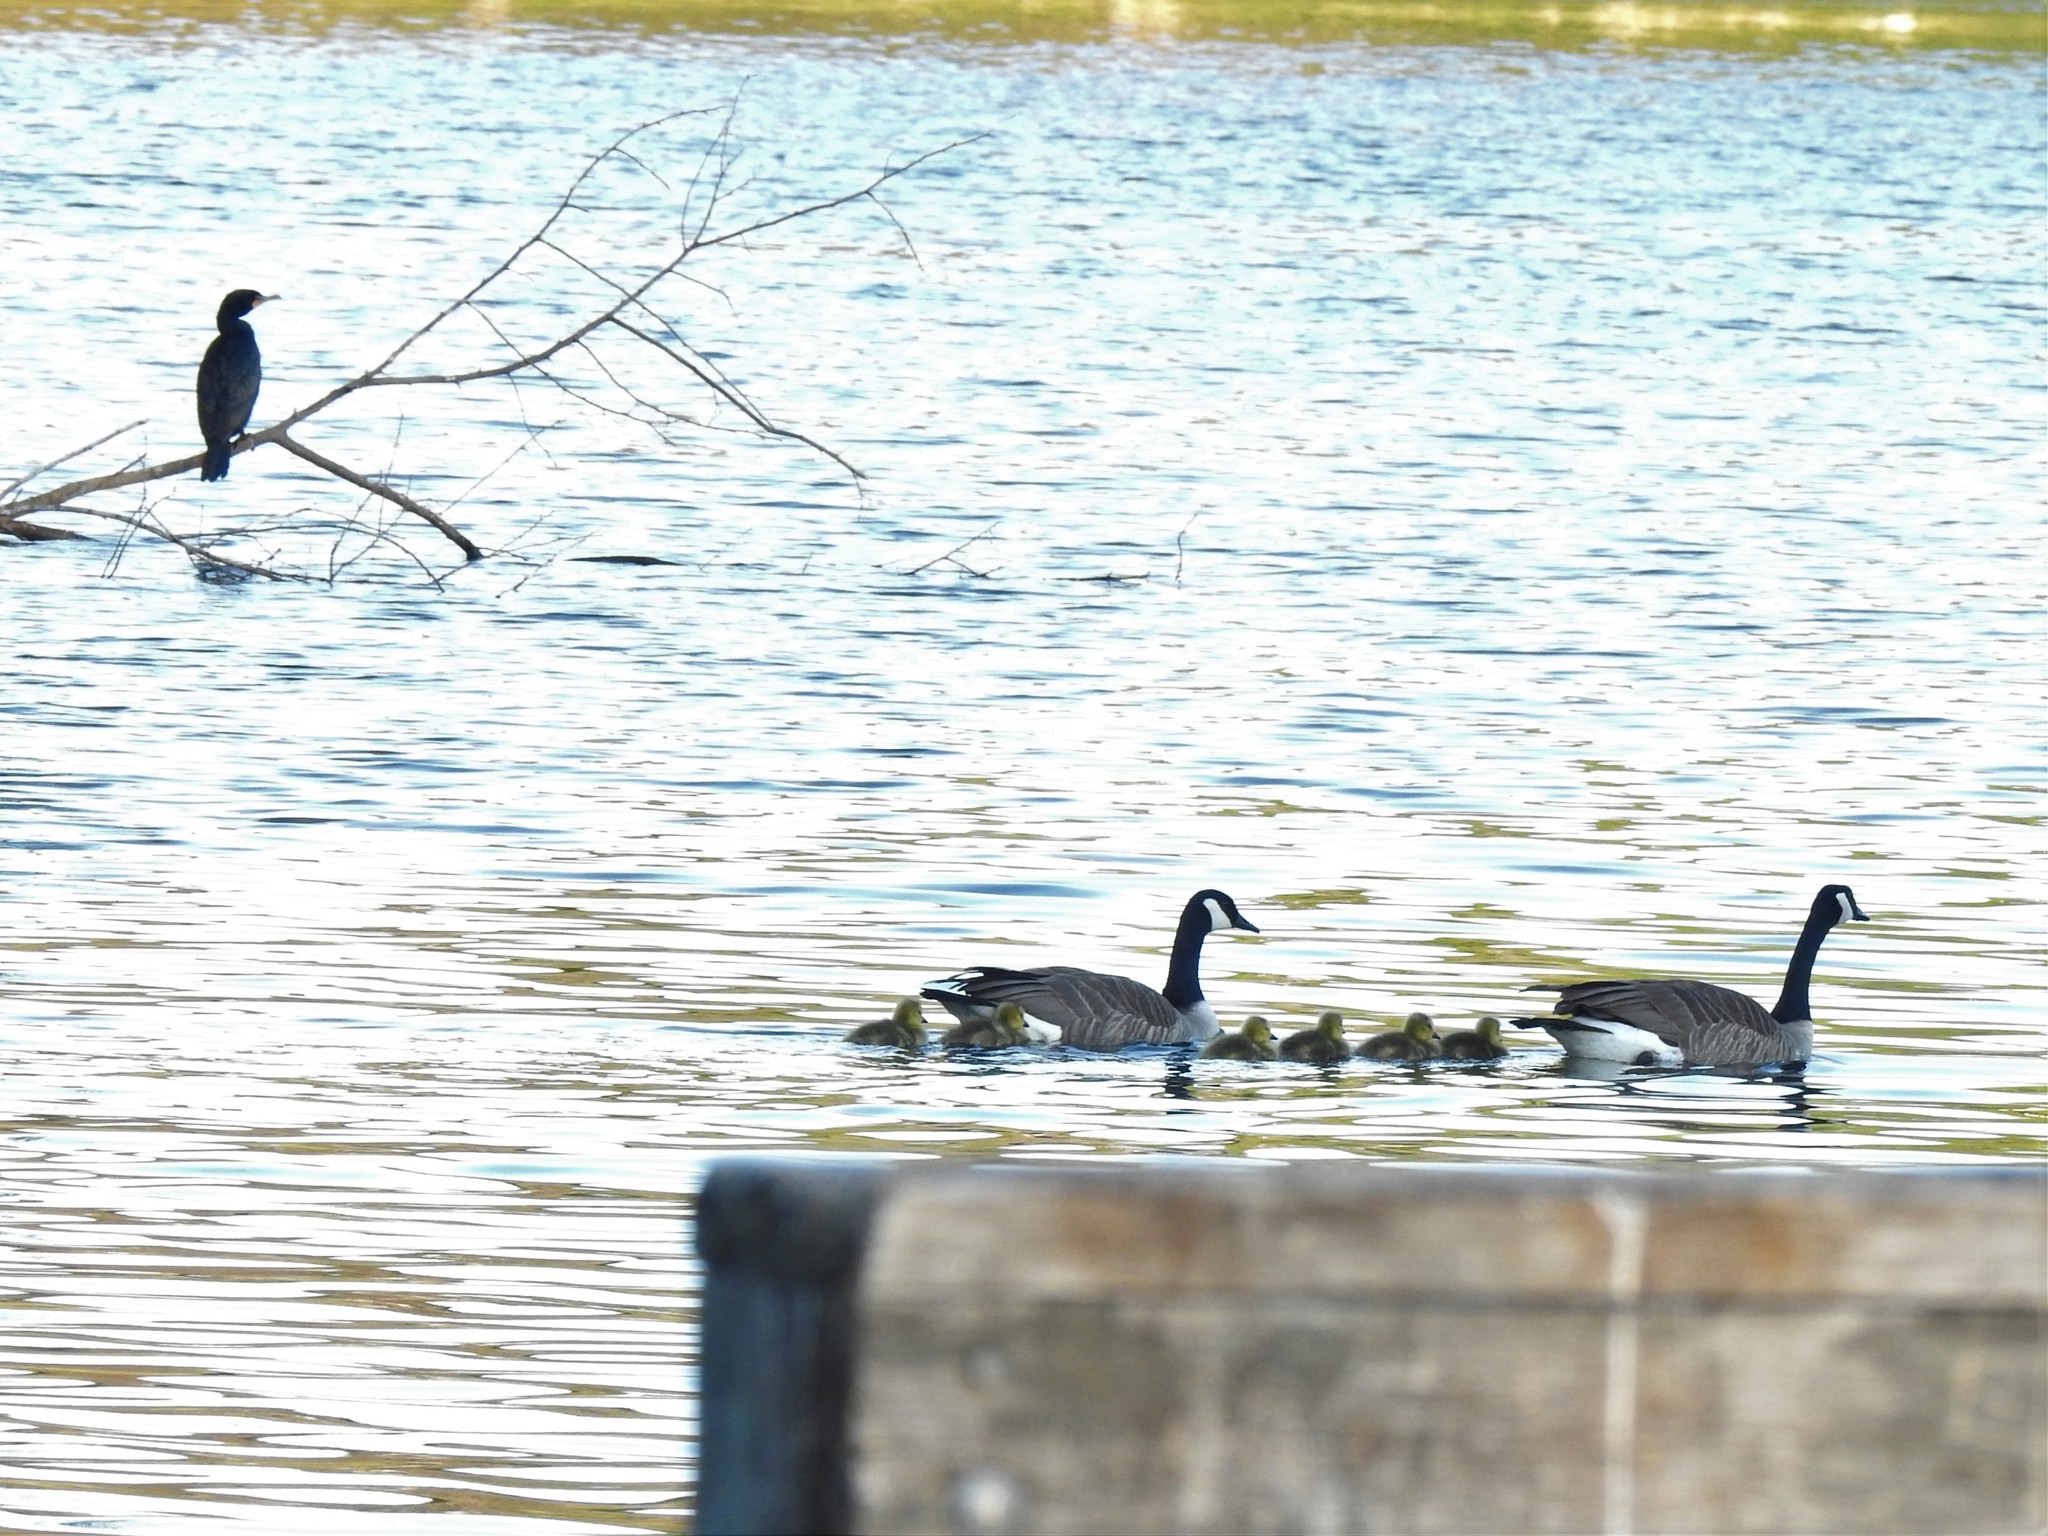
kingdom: Animalia
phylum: Chordata
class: Aves
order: Anseriformes
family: Anatidae
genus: Branta
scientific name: Branta canadensis
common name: Canada goose
